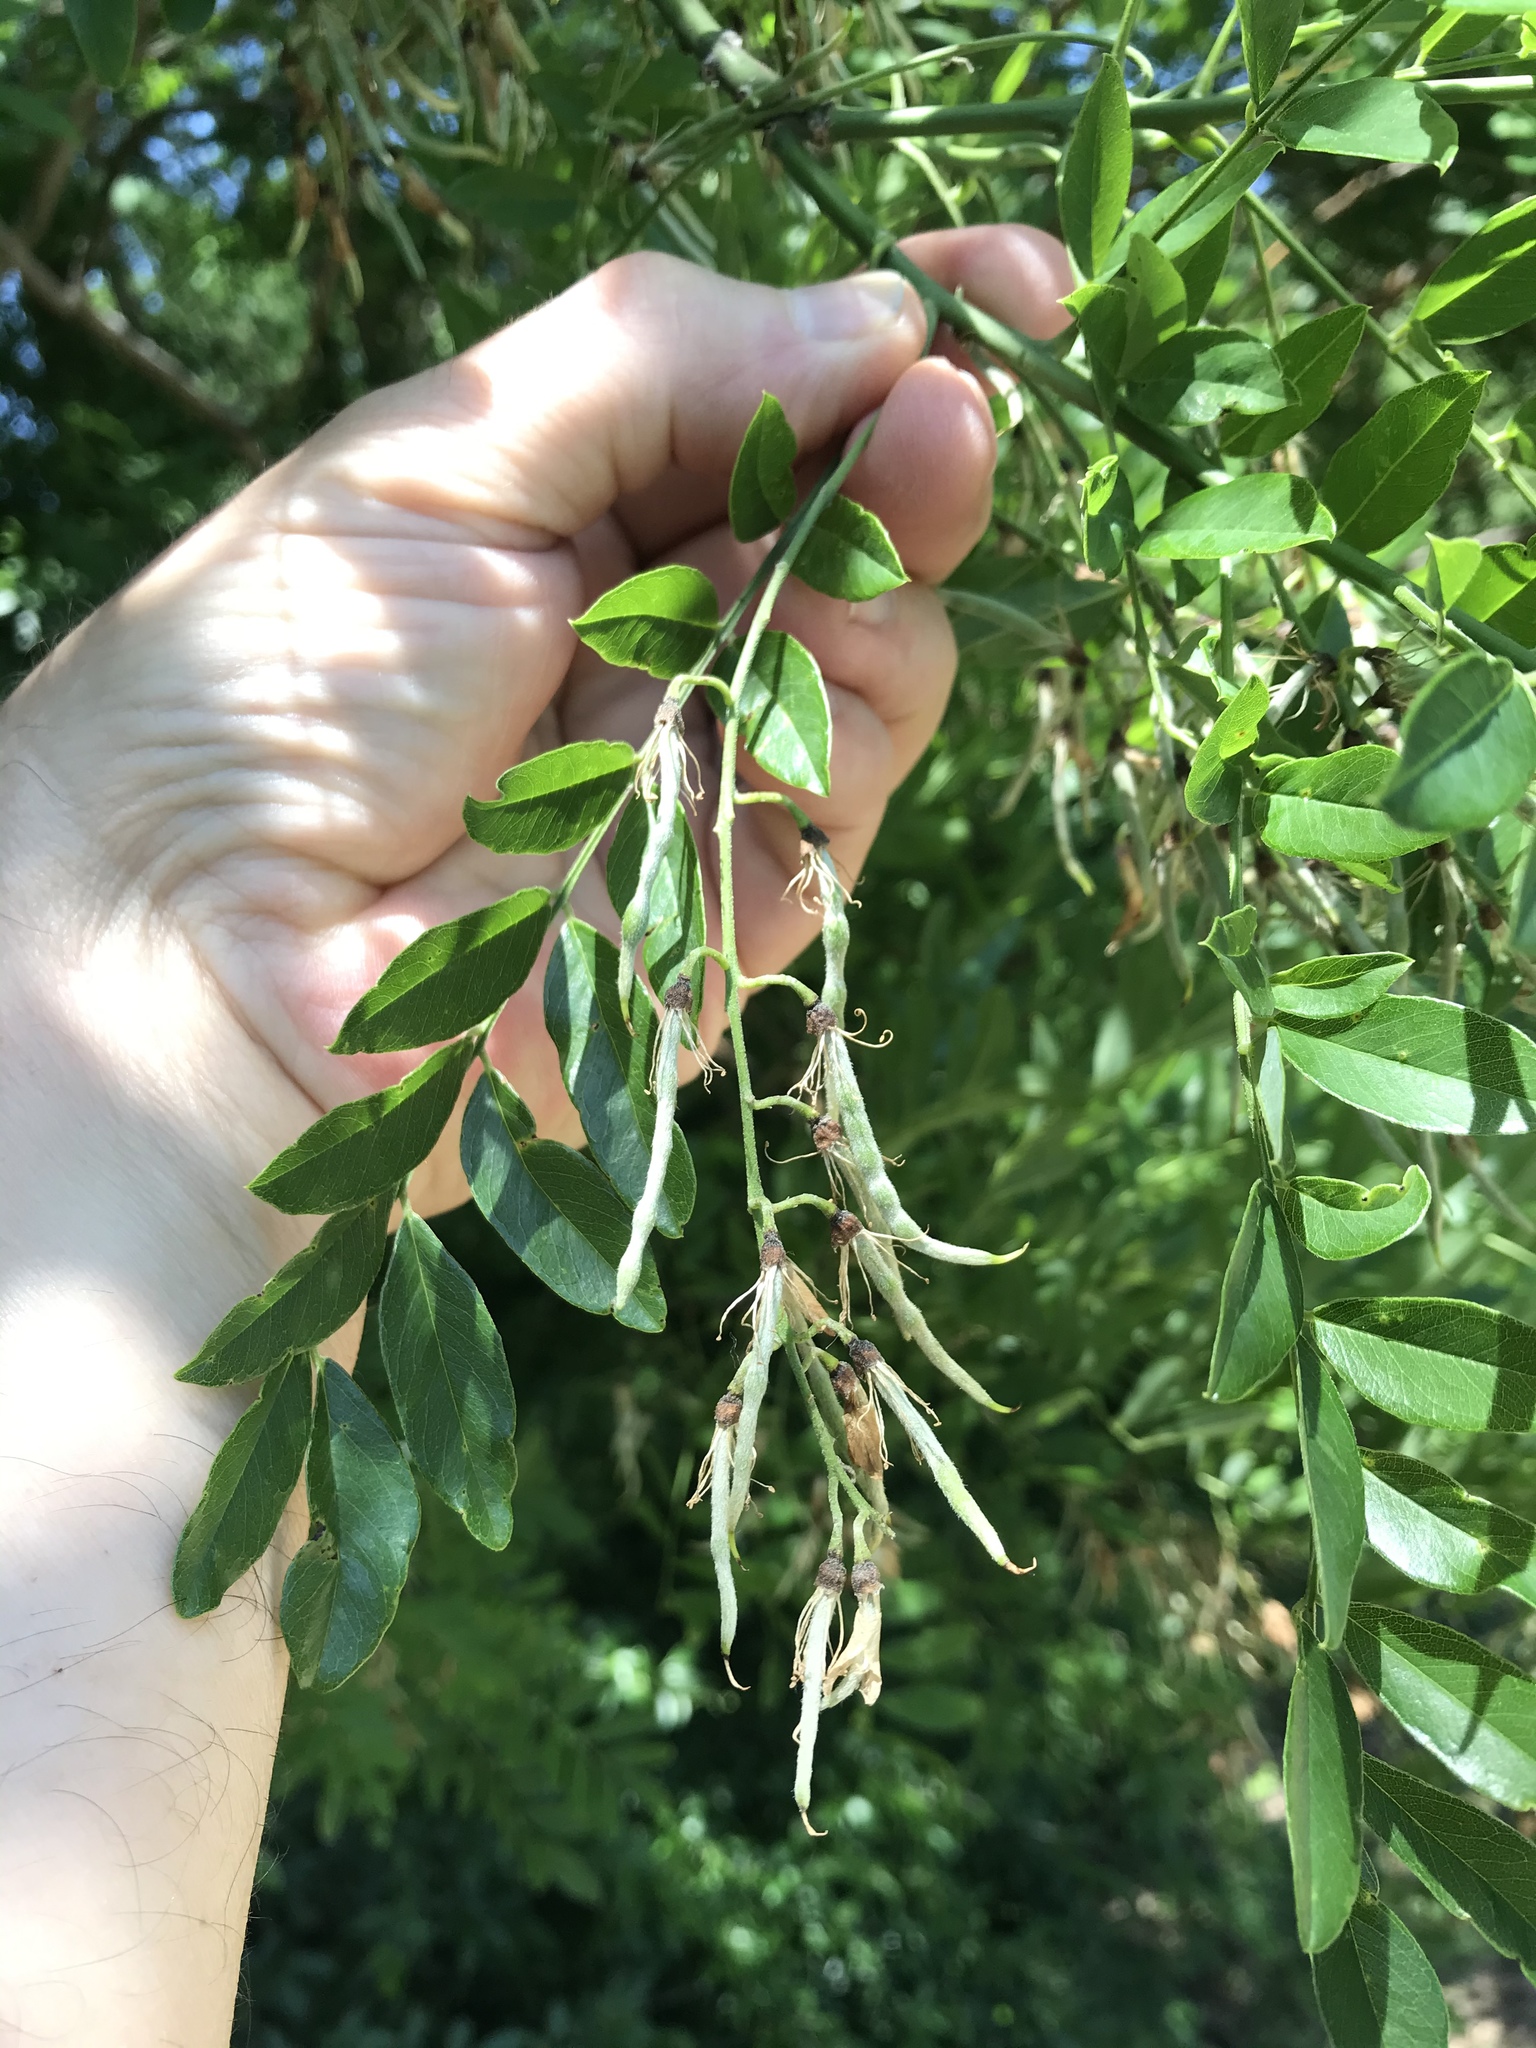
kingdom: Plantae
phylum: Tracheophyta
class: Magnoliopsida
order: Fabales
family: Fabaceae
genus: Styphnolobium
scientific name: Styphnolobium affine
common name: Texas sophora
